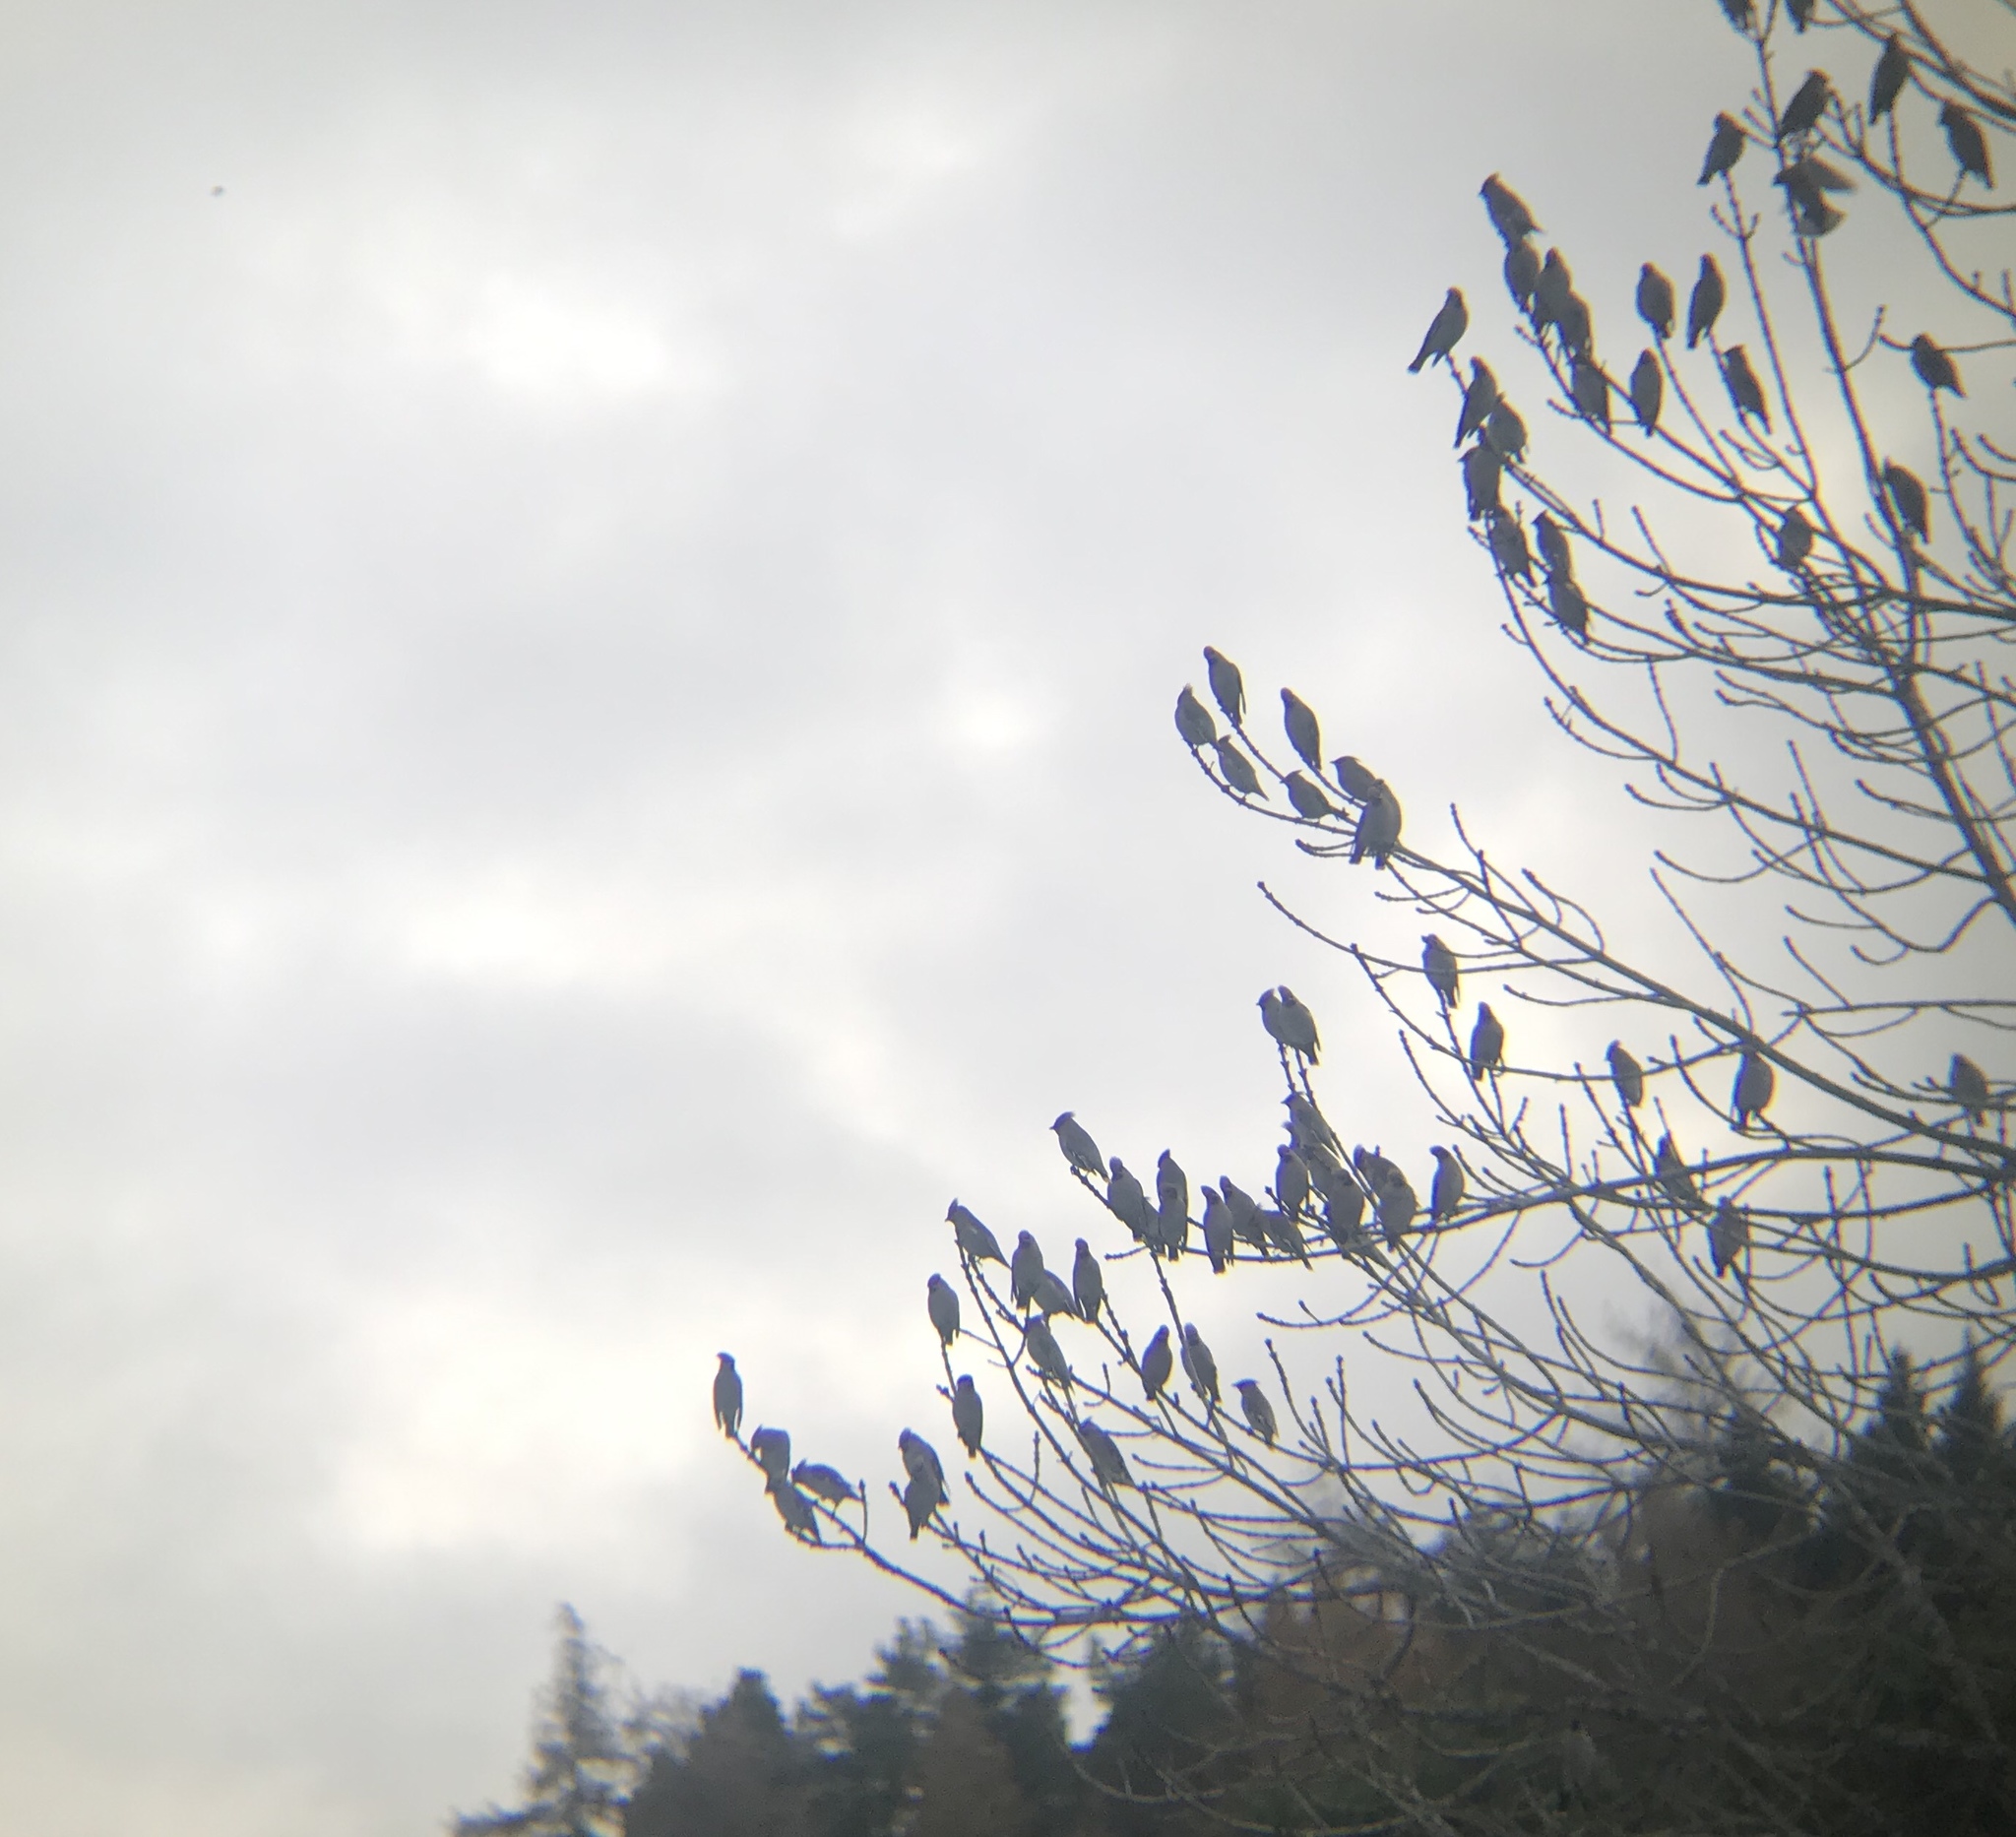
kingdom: Animalia
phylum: Chordata
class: Aves
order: Passeriformes
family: Bombycillidae
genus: Bombycilla
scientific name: Bombycilla garrulus
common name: Bohemian waxwing
